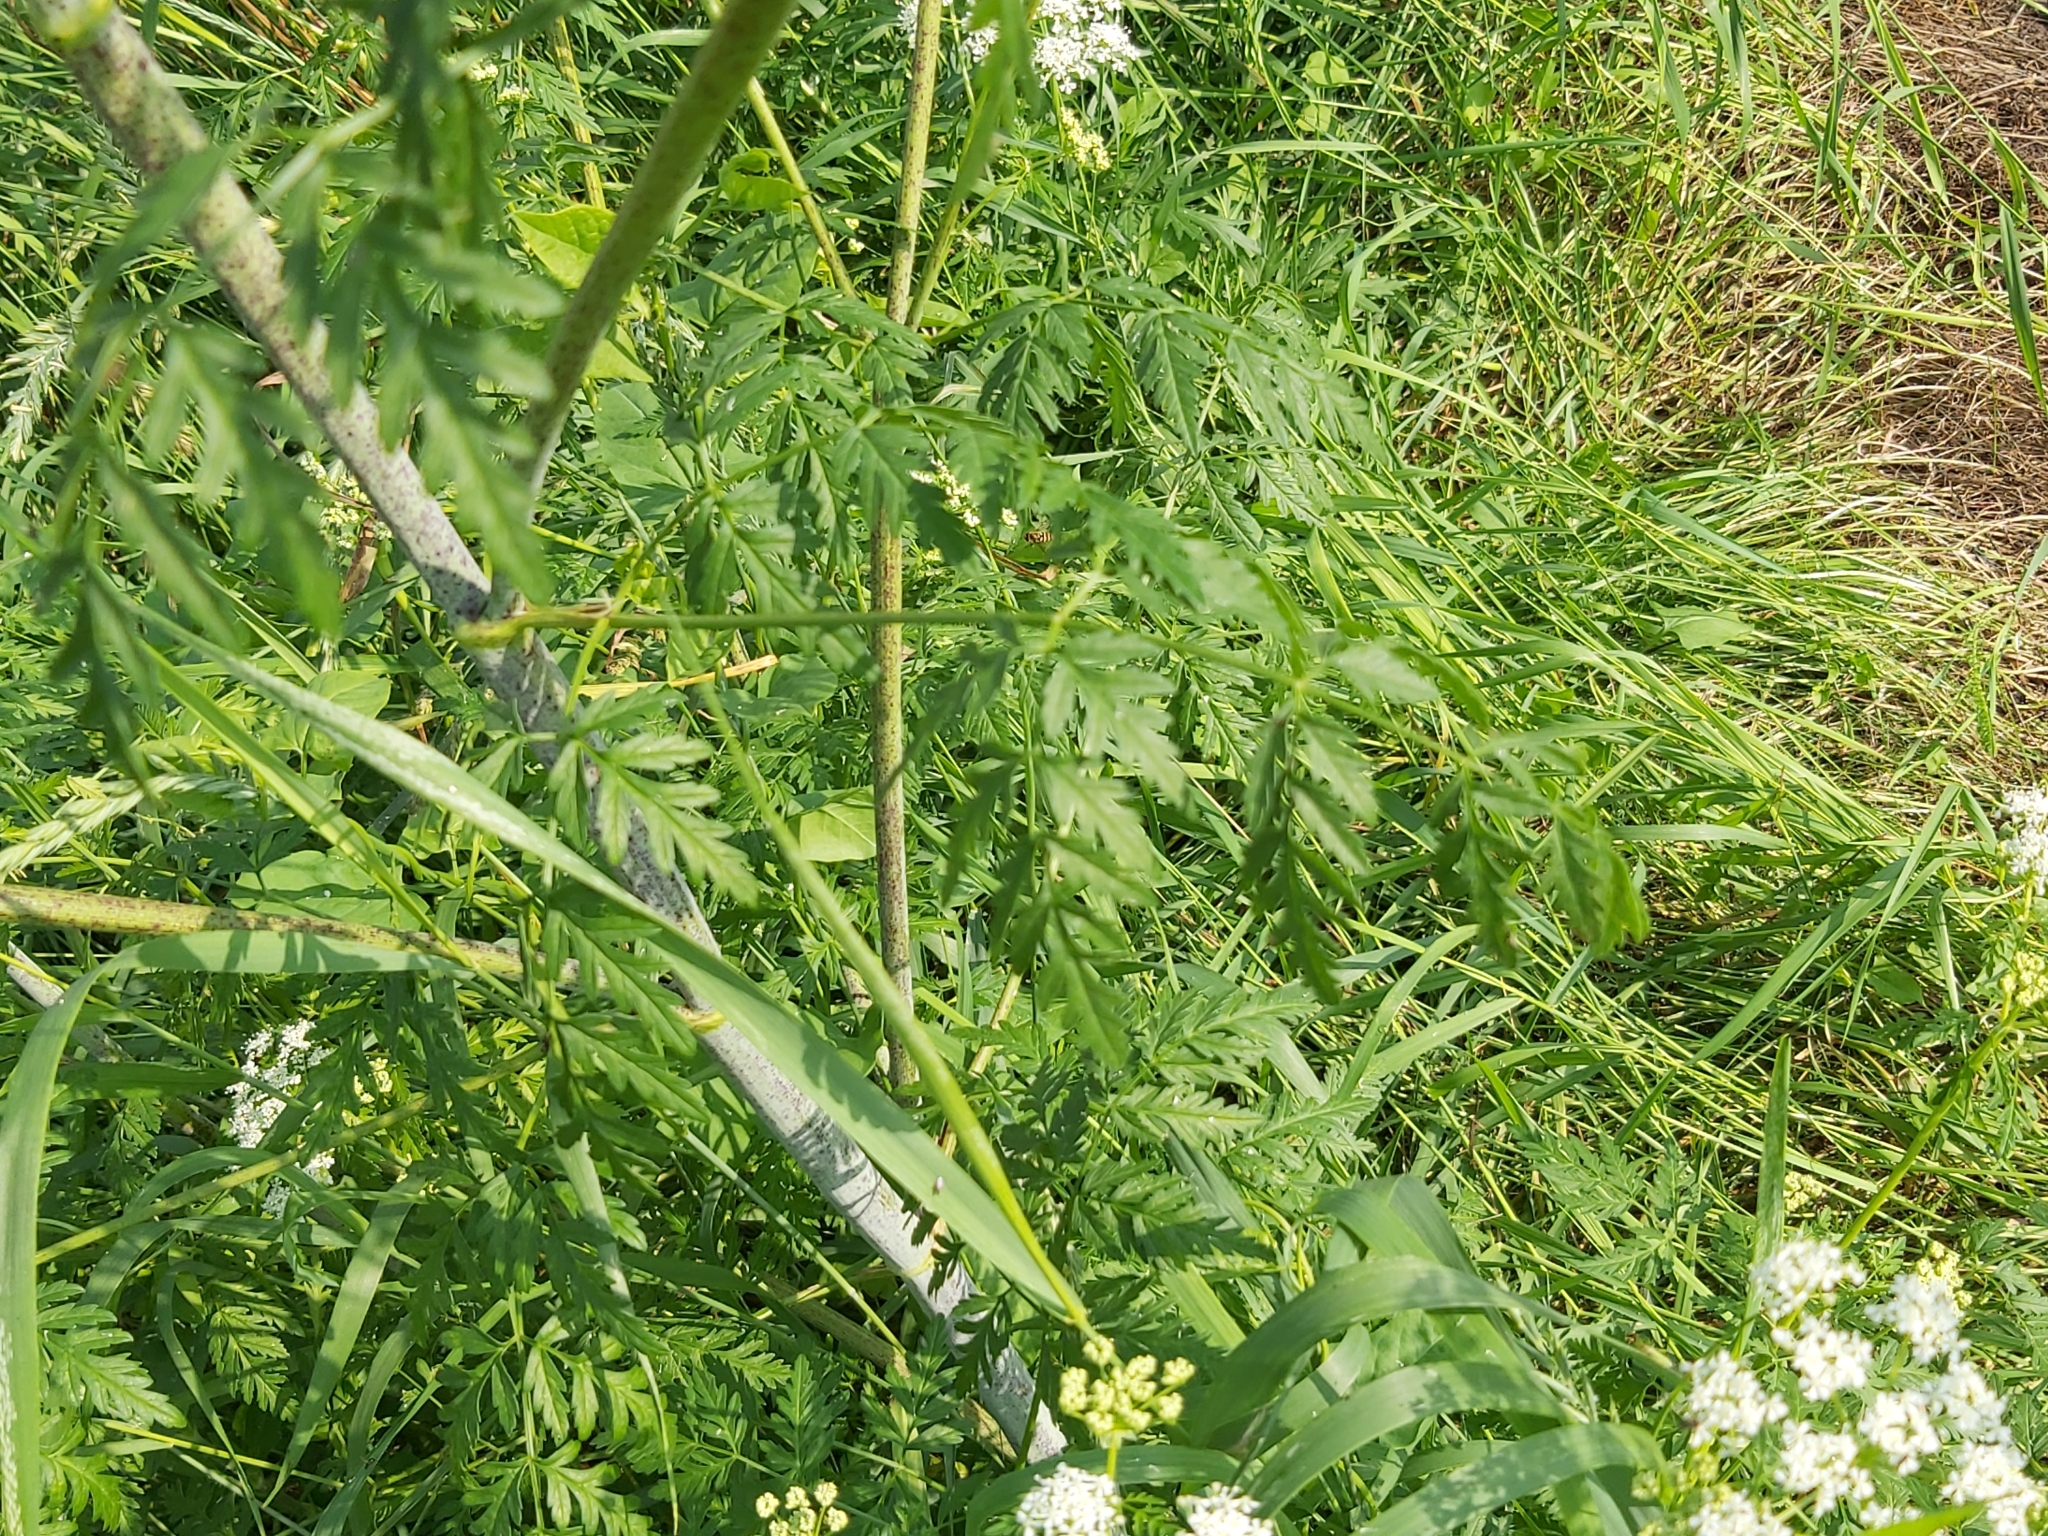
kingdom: Plantae
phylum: Tracheophyta
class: Magnoliopsida
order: Apiales
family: Apiaceae
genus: Conium
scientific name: Conium maculatum
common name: Hemlock
